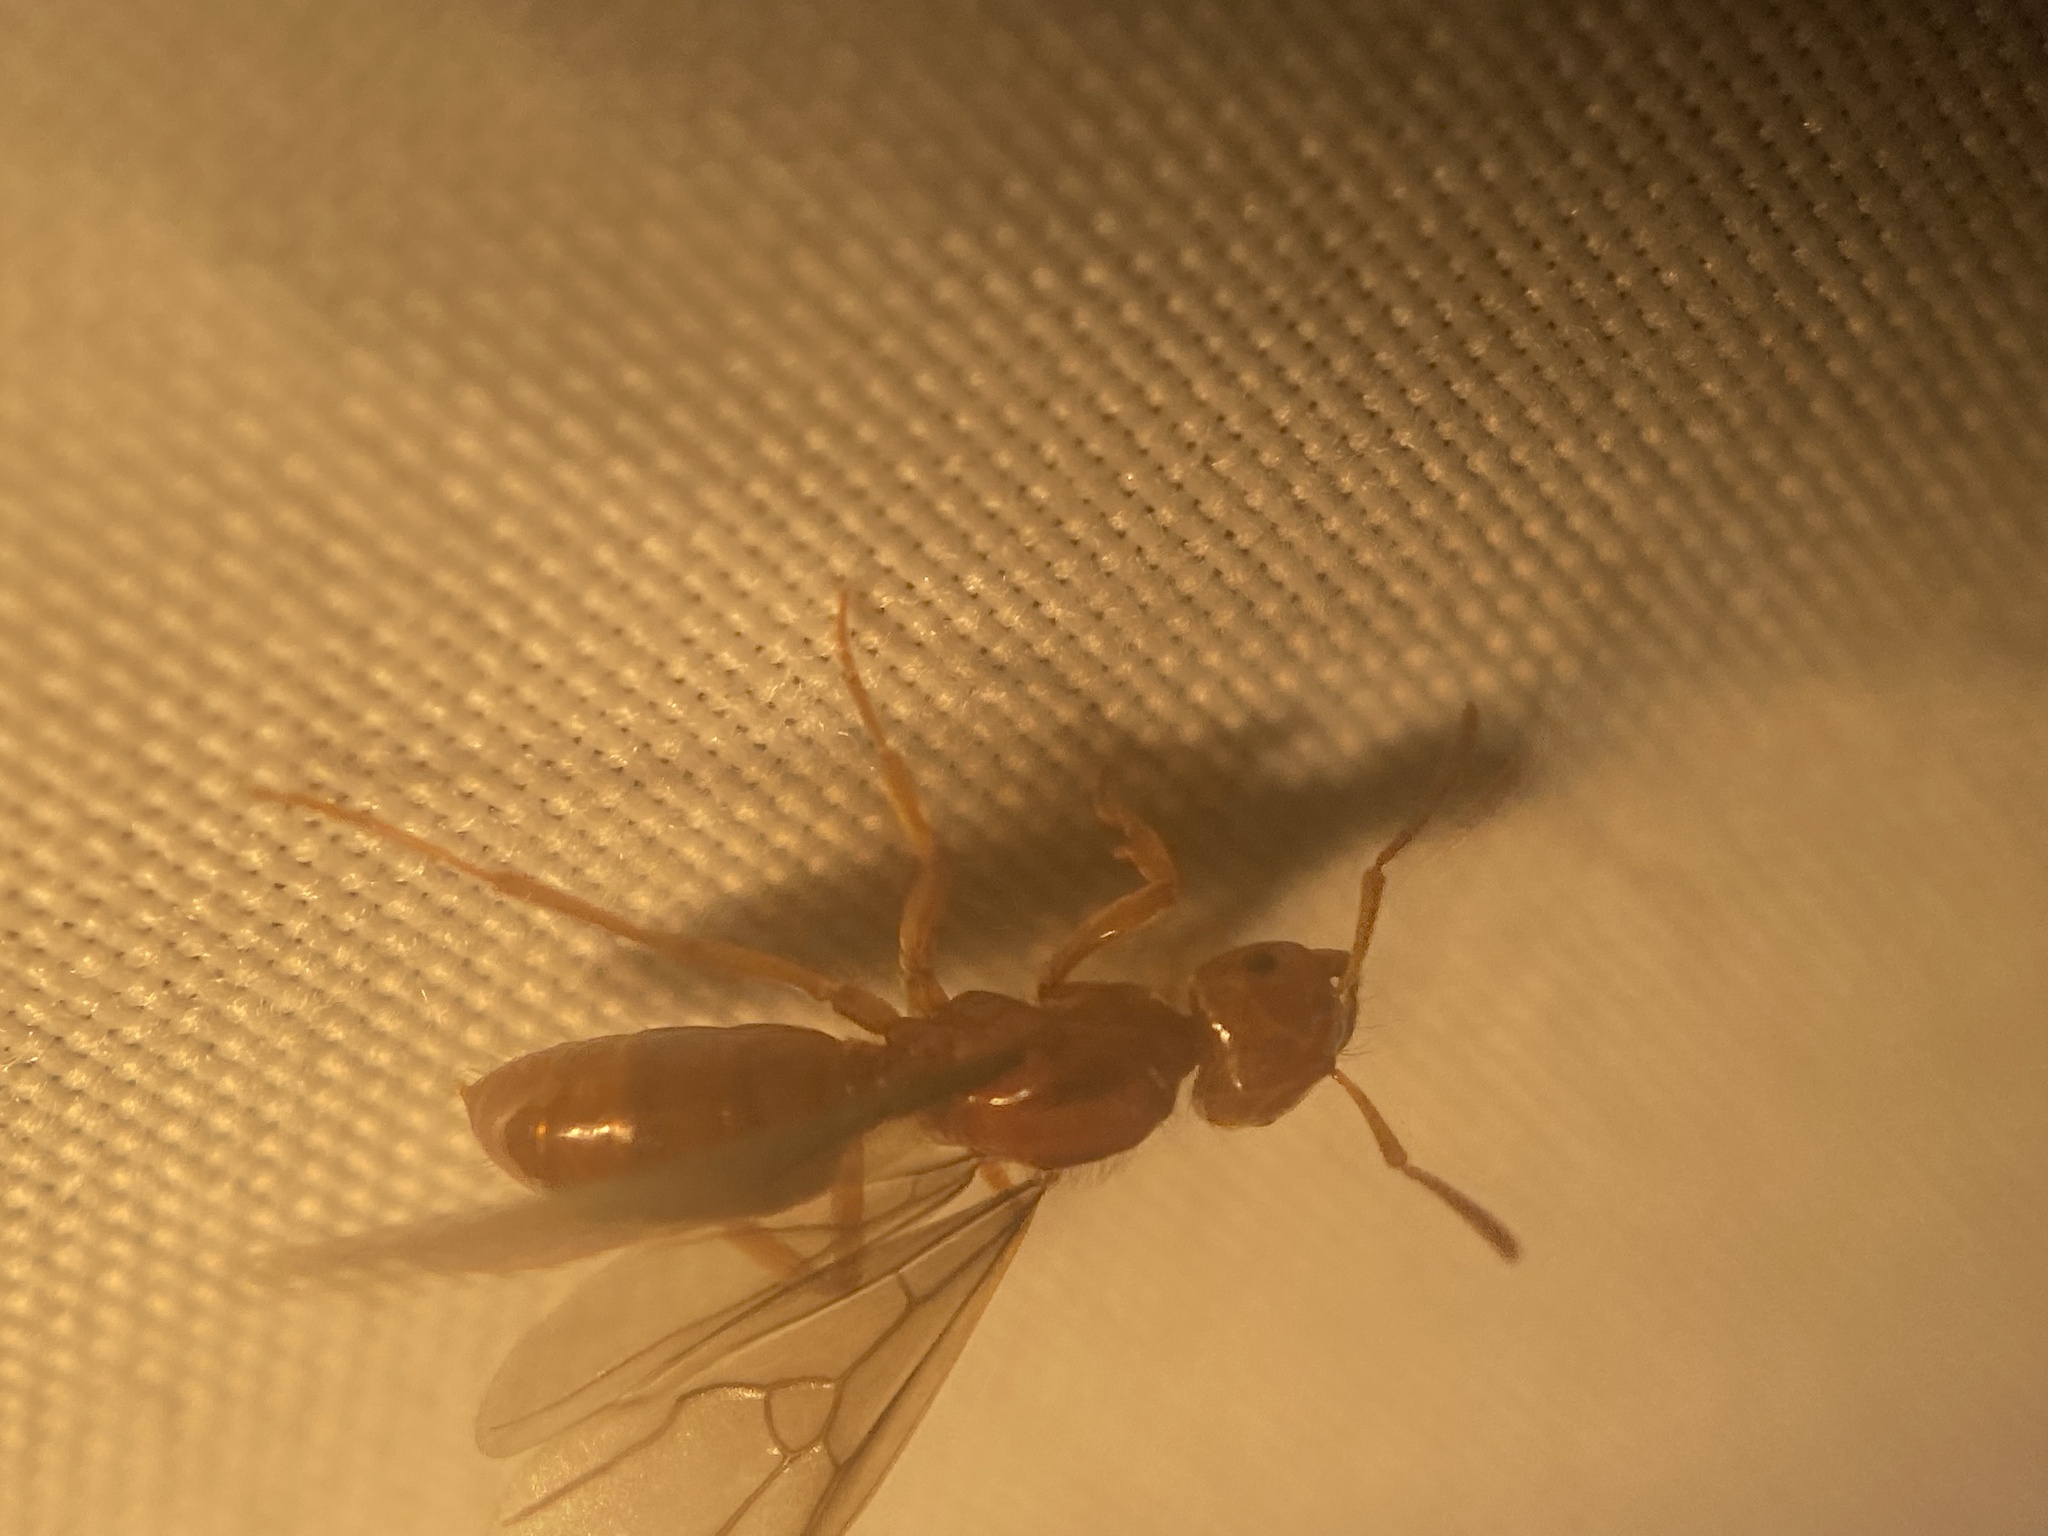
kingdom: Animalia
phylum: Arthropoda
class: Insecta
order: Hymenoptera
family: Formicidae
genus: Acanthomyops
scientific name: Acanthomyops interjectus
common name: Larger yellow ant
